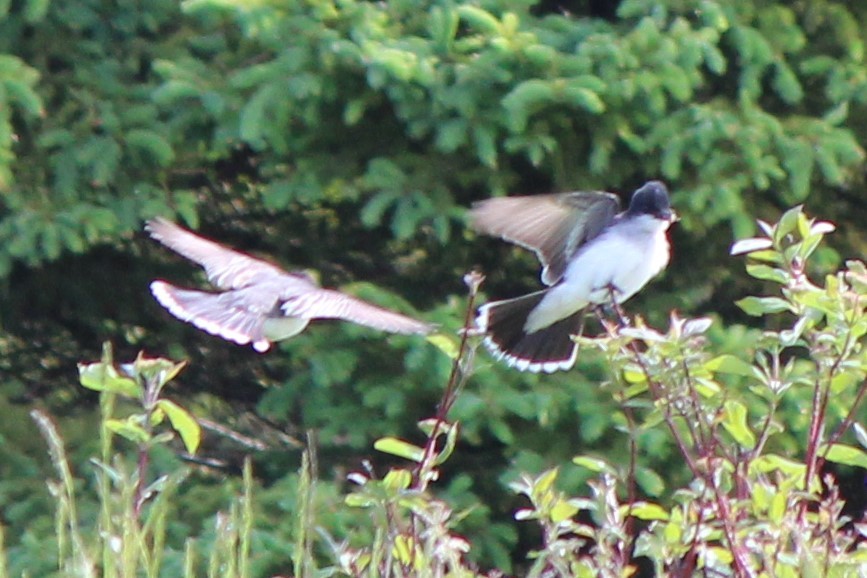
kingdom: Animalia
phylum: Chordata
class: Aves
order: Passeriformes
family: Tyrannidae
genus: Tyrannus
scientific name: Tyrannus tyrannus
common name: Eastern kingbird
